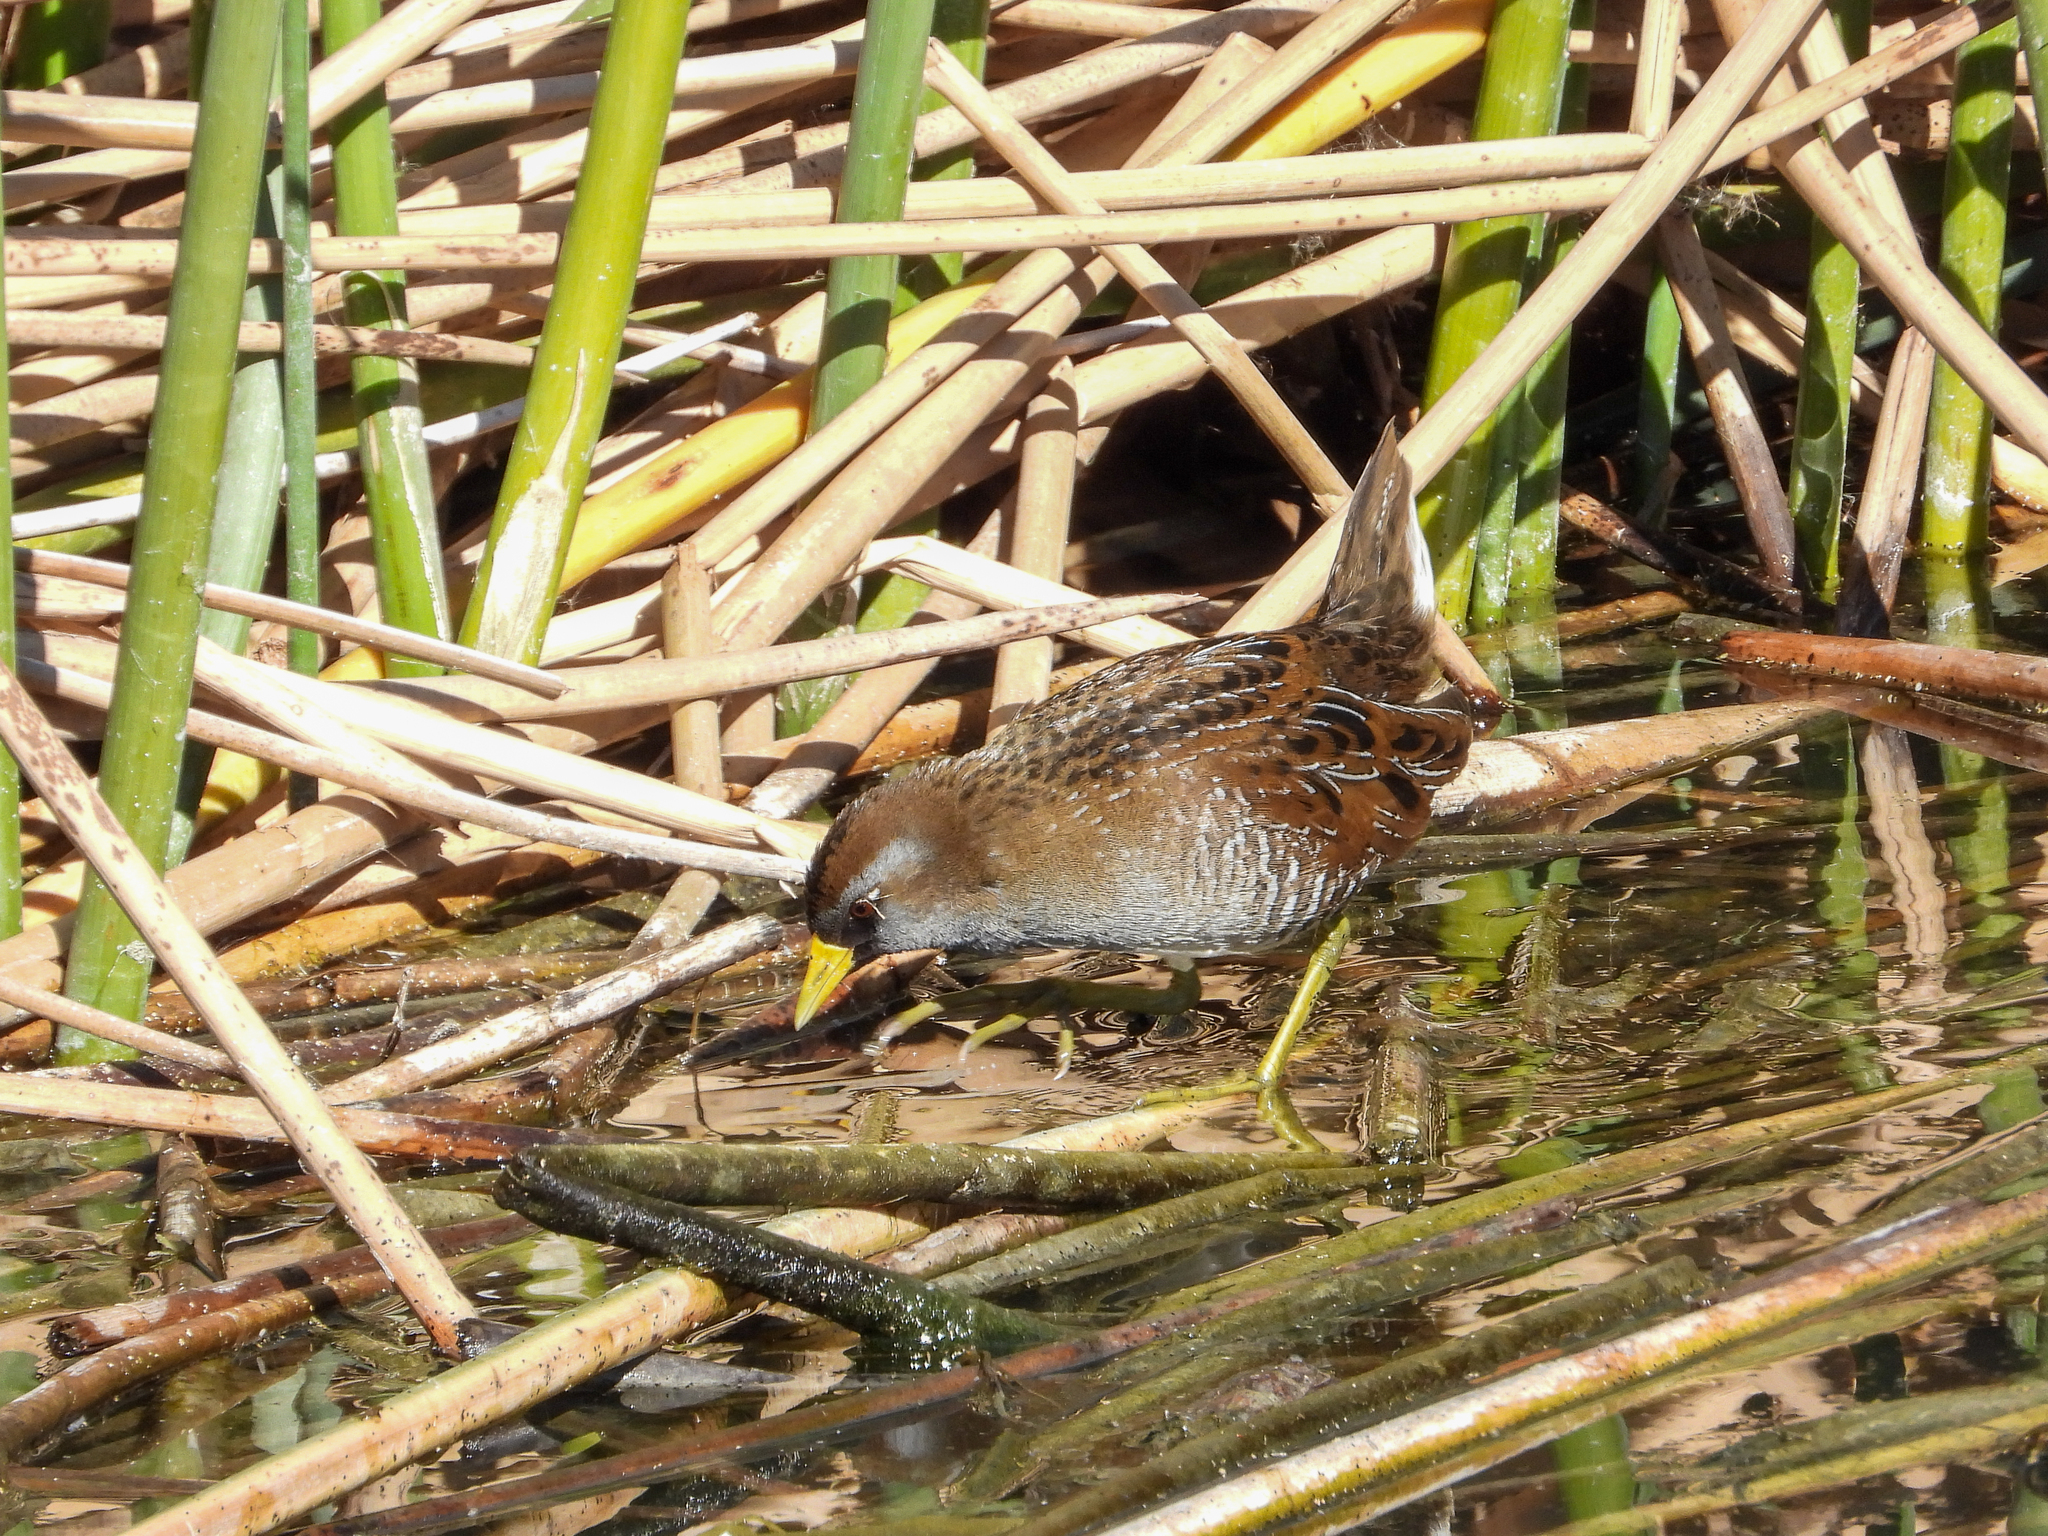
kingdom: Animalia
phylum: Chordata
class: Aves
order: Gruiformes
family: Rallidae
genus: Porzana
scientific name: Porzana carolina
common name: Sora
